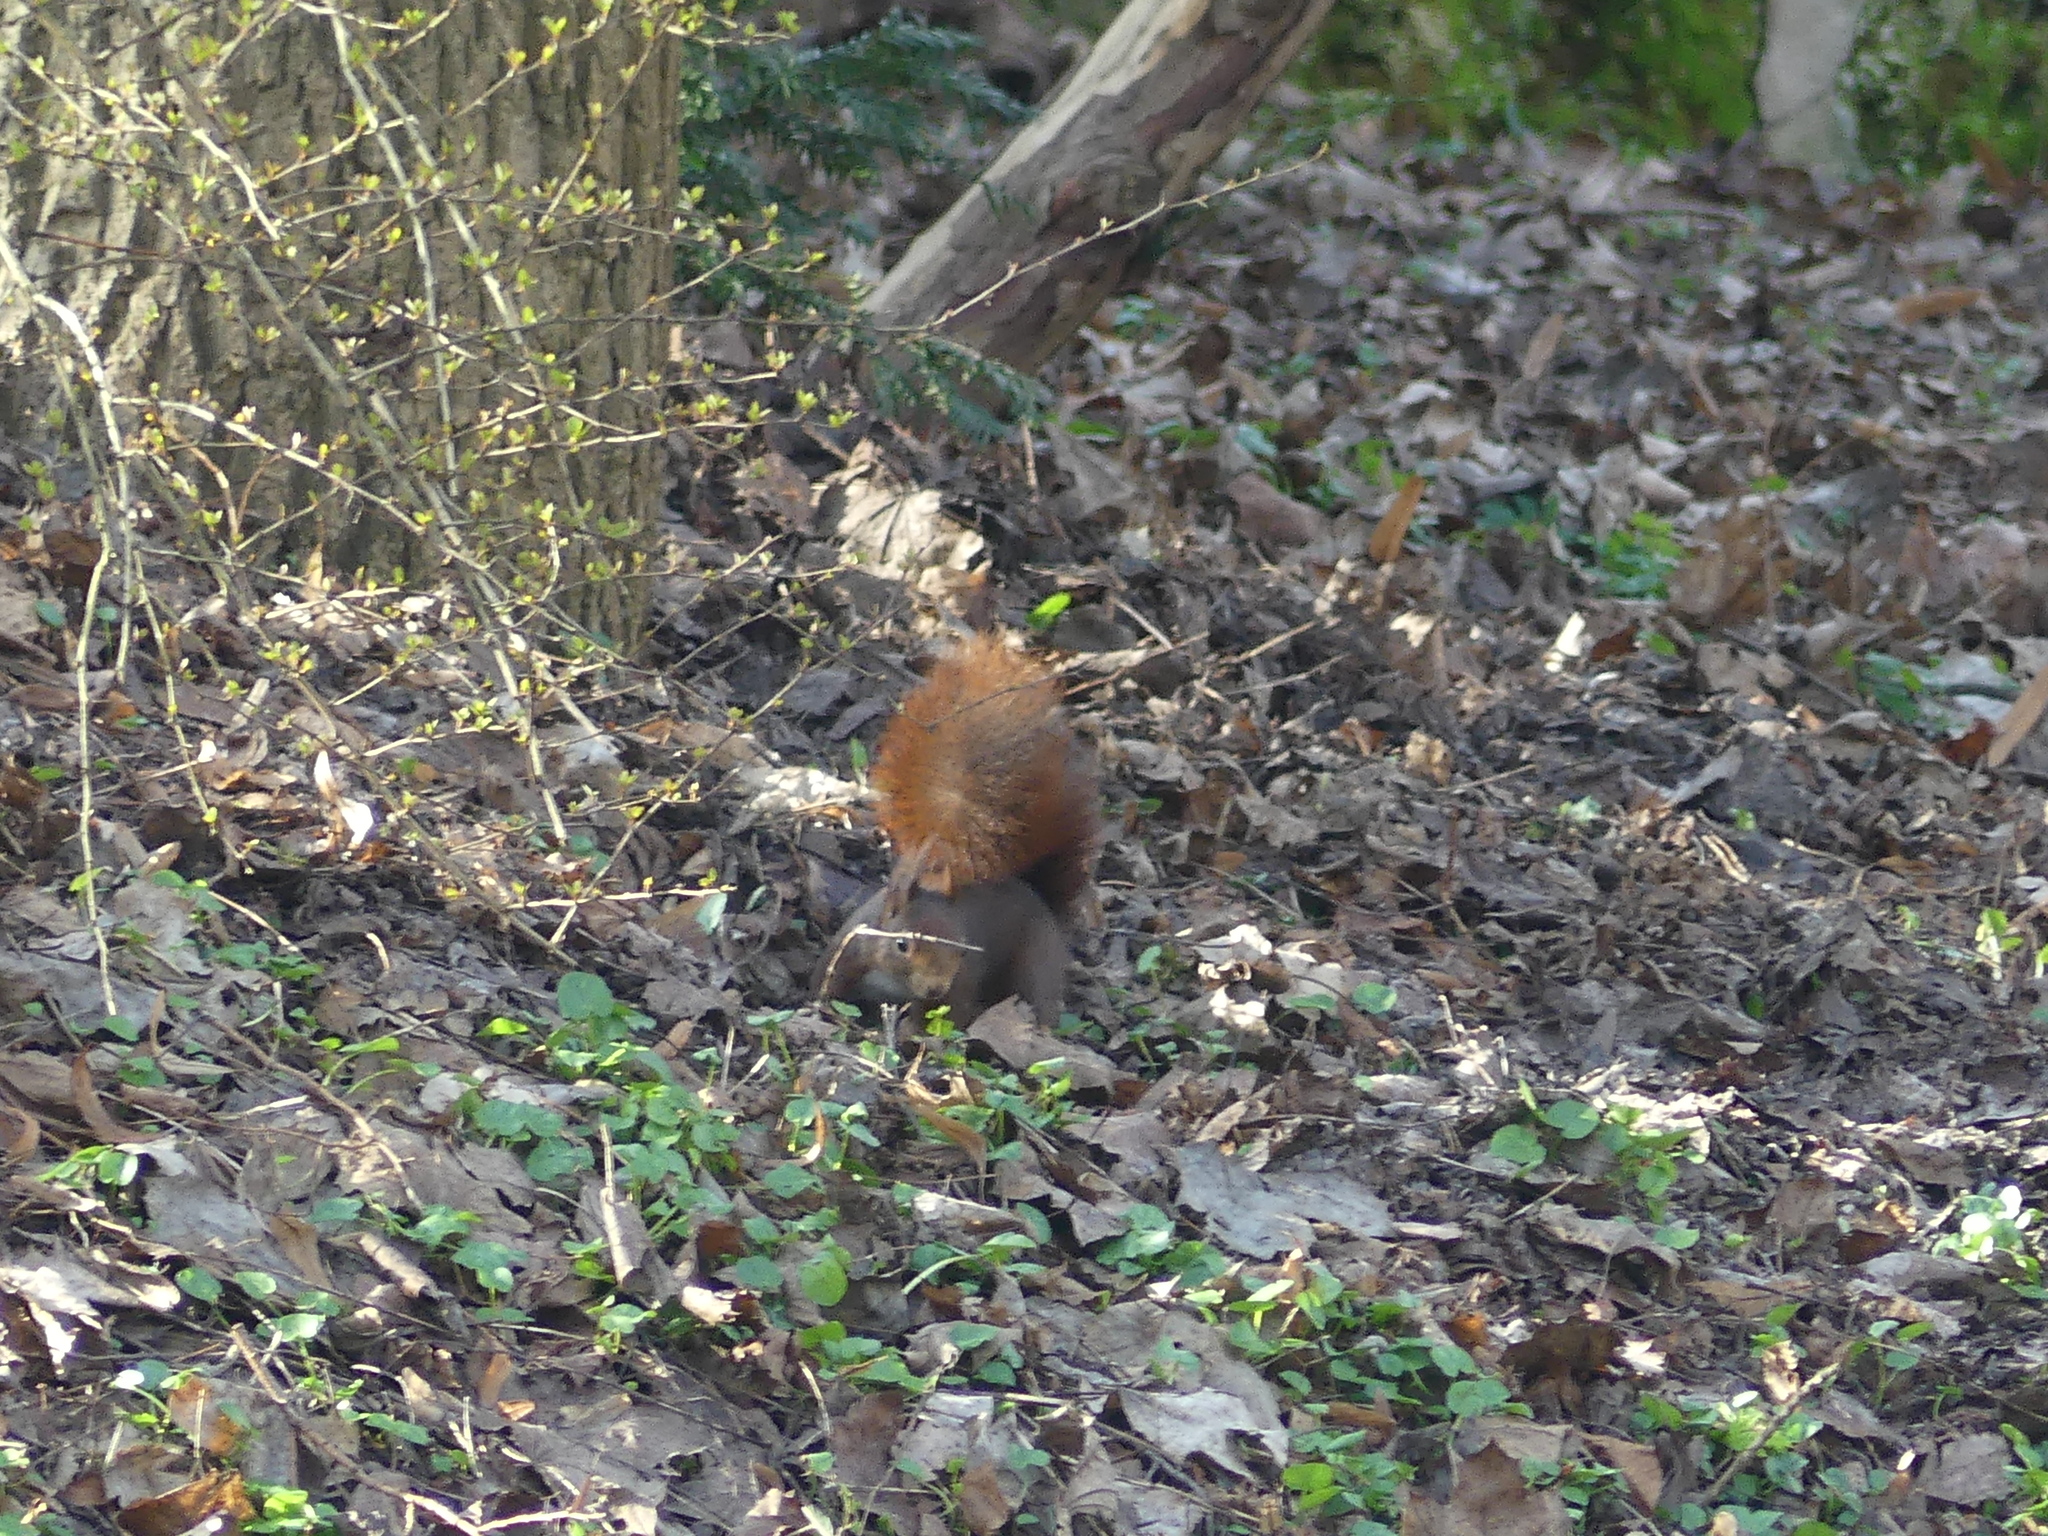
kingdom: Animalia
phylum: Chordata
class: Mammalia
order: Rodentia
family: Sciuridae
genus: Sciurus
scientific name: Sciurus vulgaris
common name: Eurasian red squirrel
